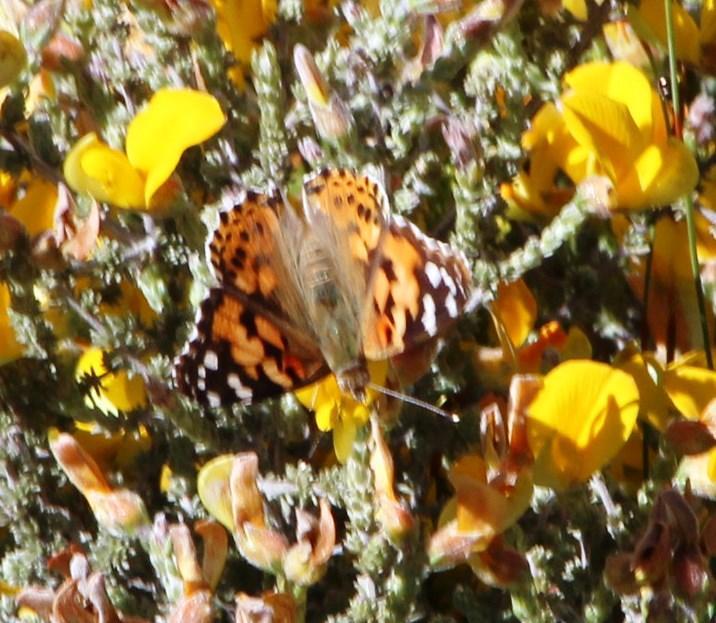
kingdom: Animalia
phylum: Arthropoda
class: Insecta
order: Lepidoptera
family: Nymphalidae
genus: Vanessa
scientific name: Vanessa cardui
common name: Painted lady
